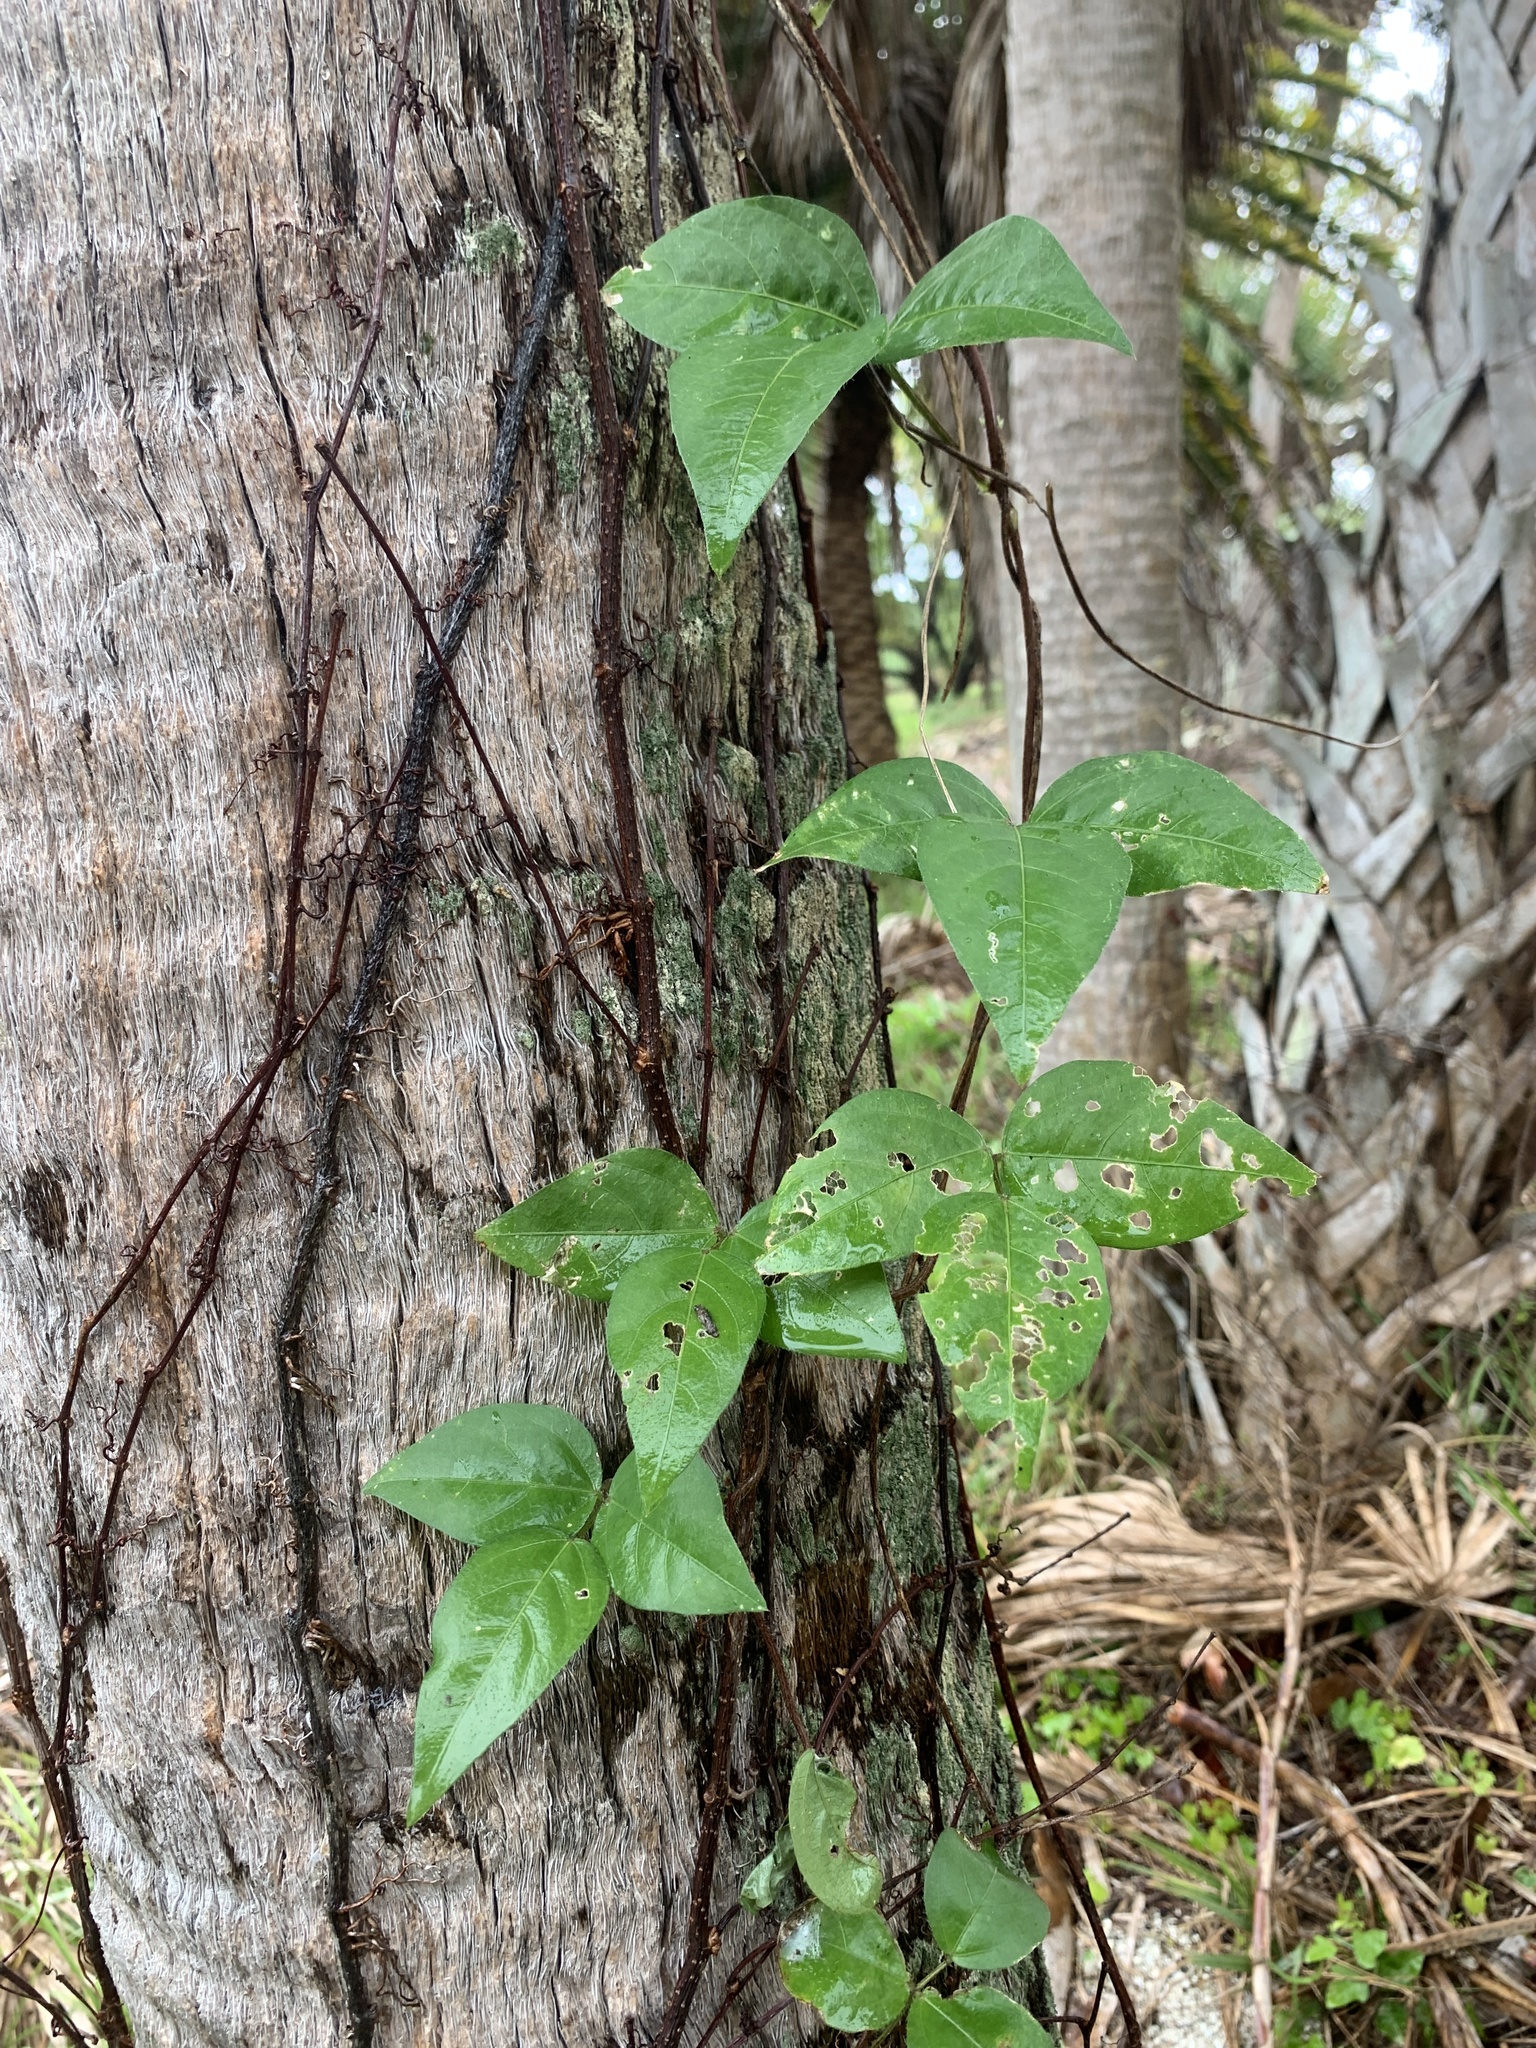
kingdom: Plantae
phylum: Tracheophyta
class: Magnoliopsida
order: Sapindales
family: Anacardiaceae
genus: Toxicodendron
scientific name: Toxicodendron radicans
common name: Poison ivy
